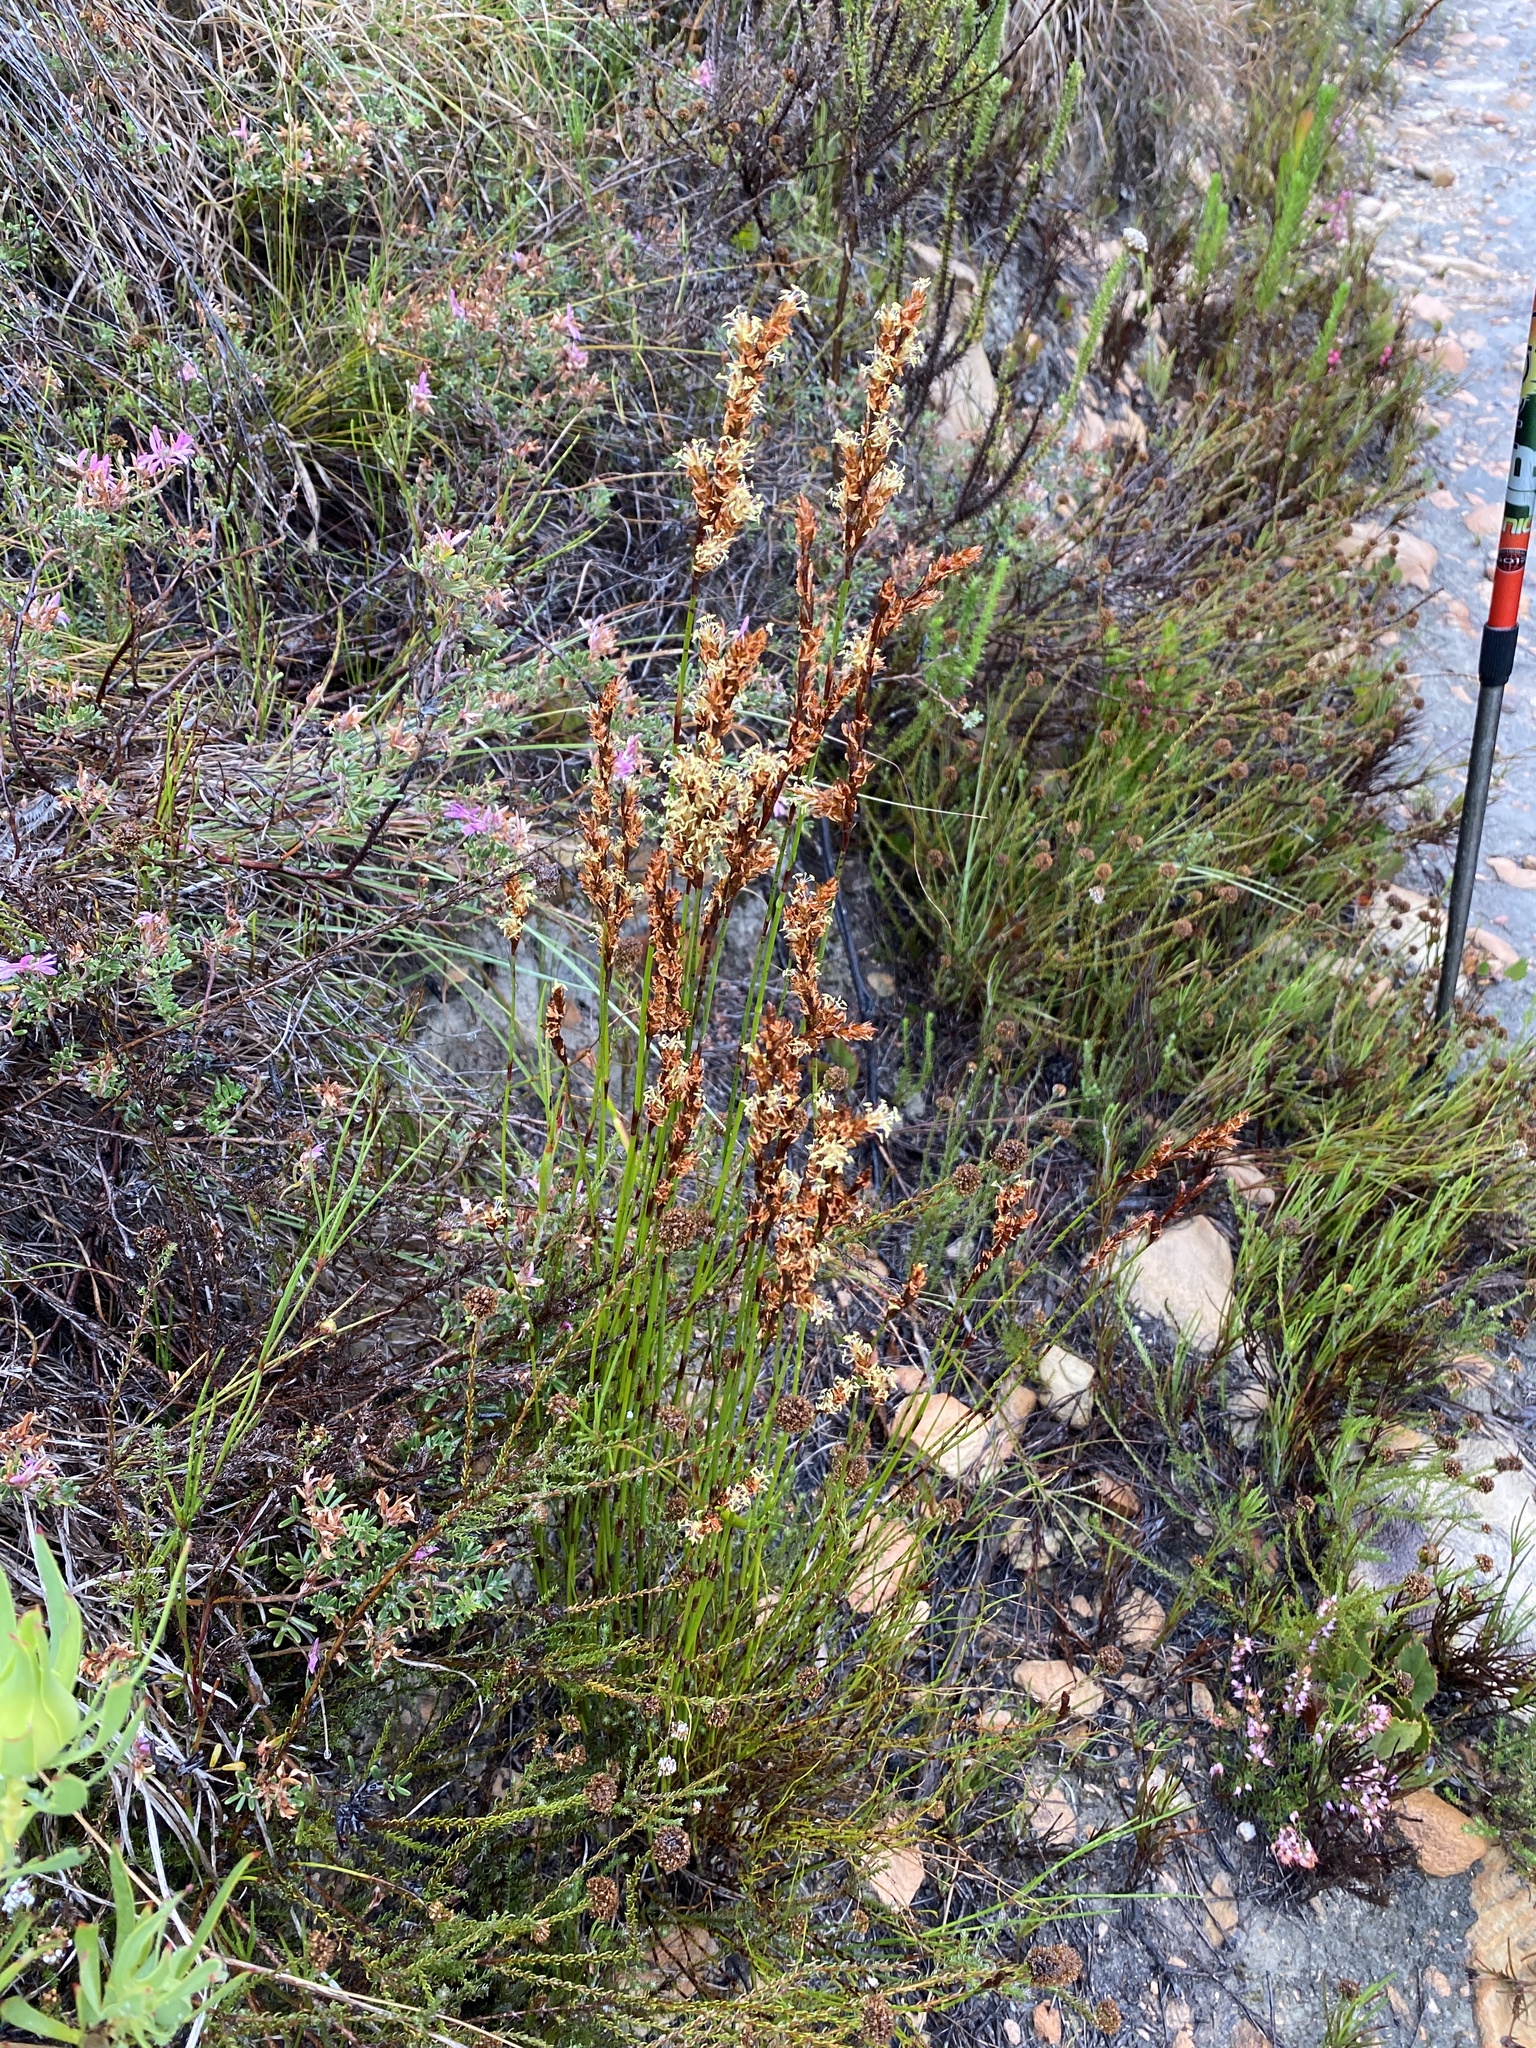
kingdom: Plantae
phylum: Tracheophyta
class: Liliopsida
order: Poales
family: Restionaceae
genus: Restio
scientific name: Restio triticeus
